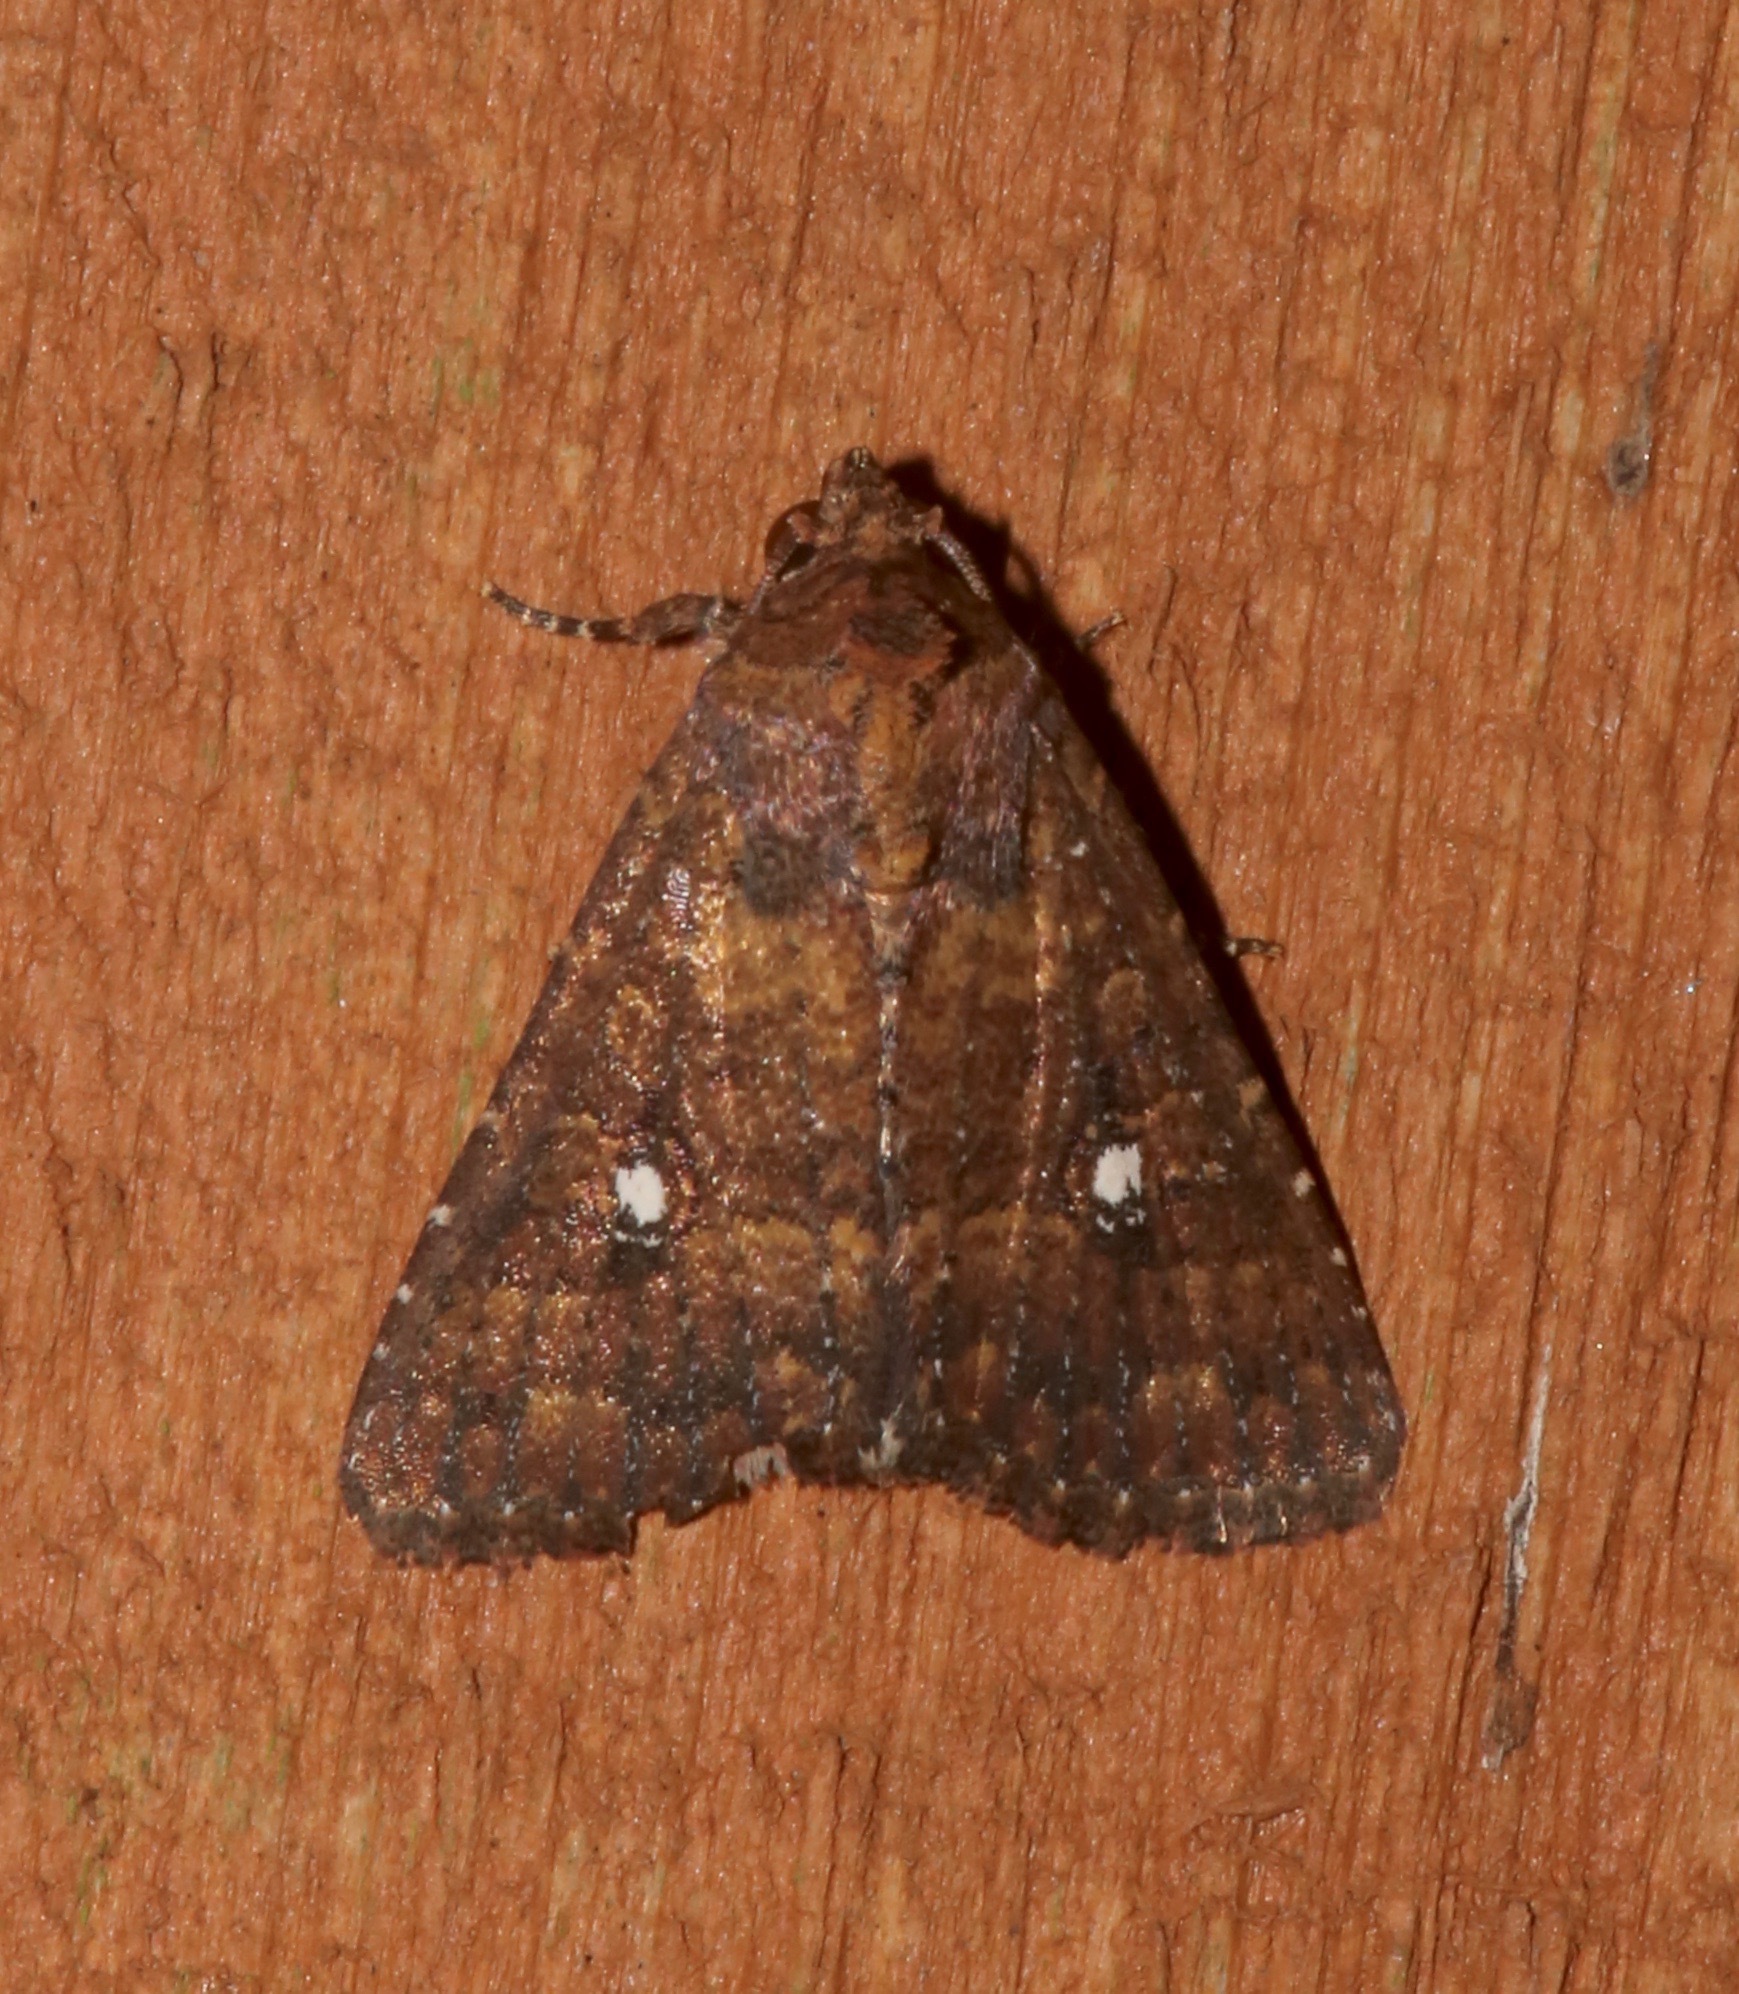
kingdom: Animalia
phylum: Arthropoda
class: Insecta
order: Lepidoptera
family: Noctuidae
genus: Condica
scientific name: Condica mobilis
